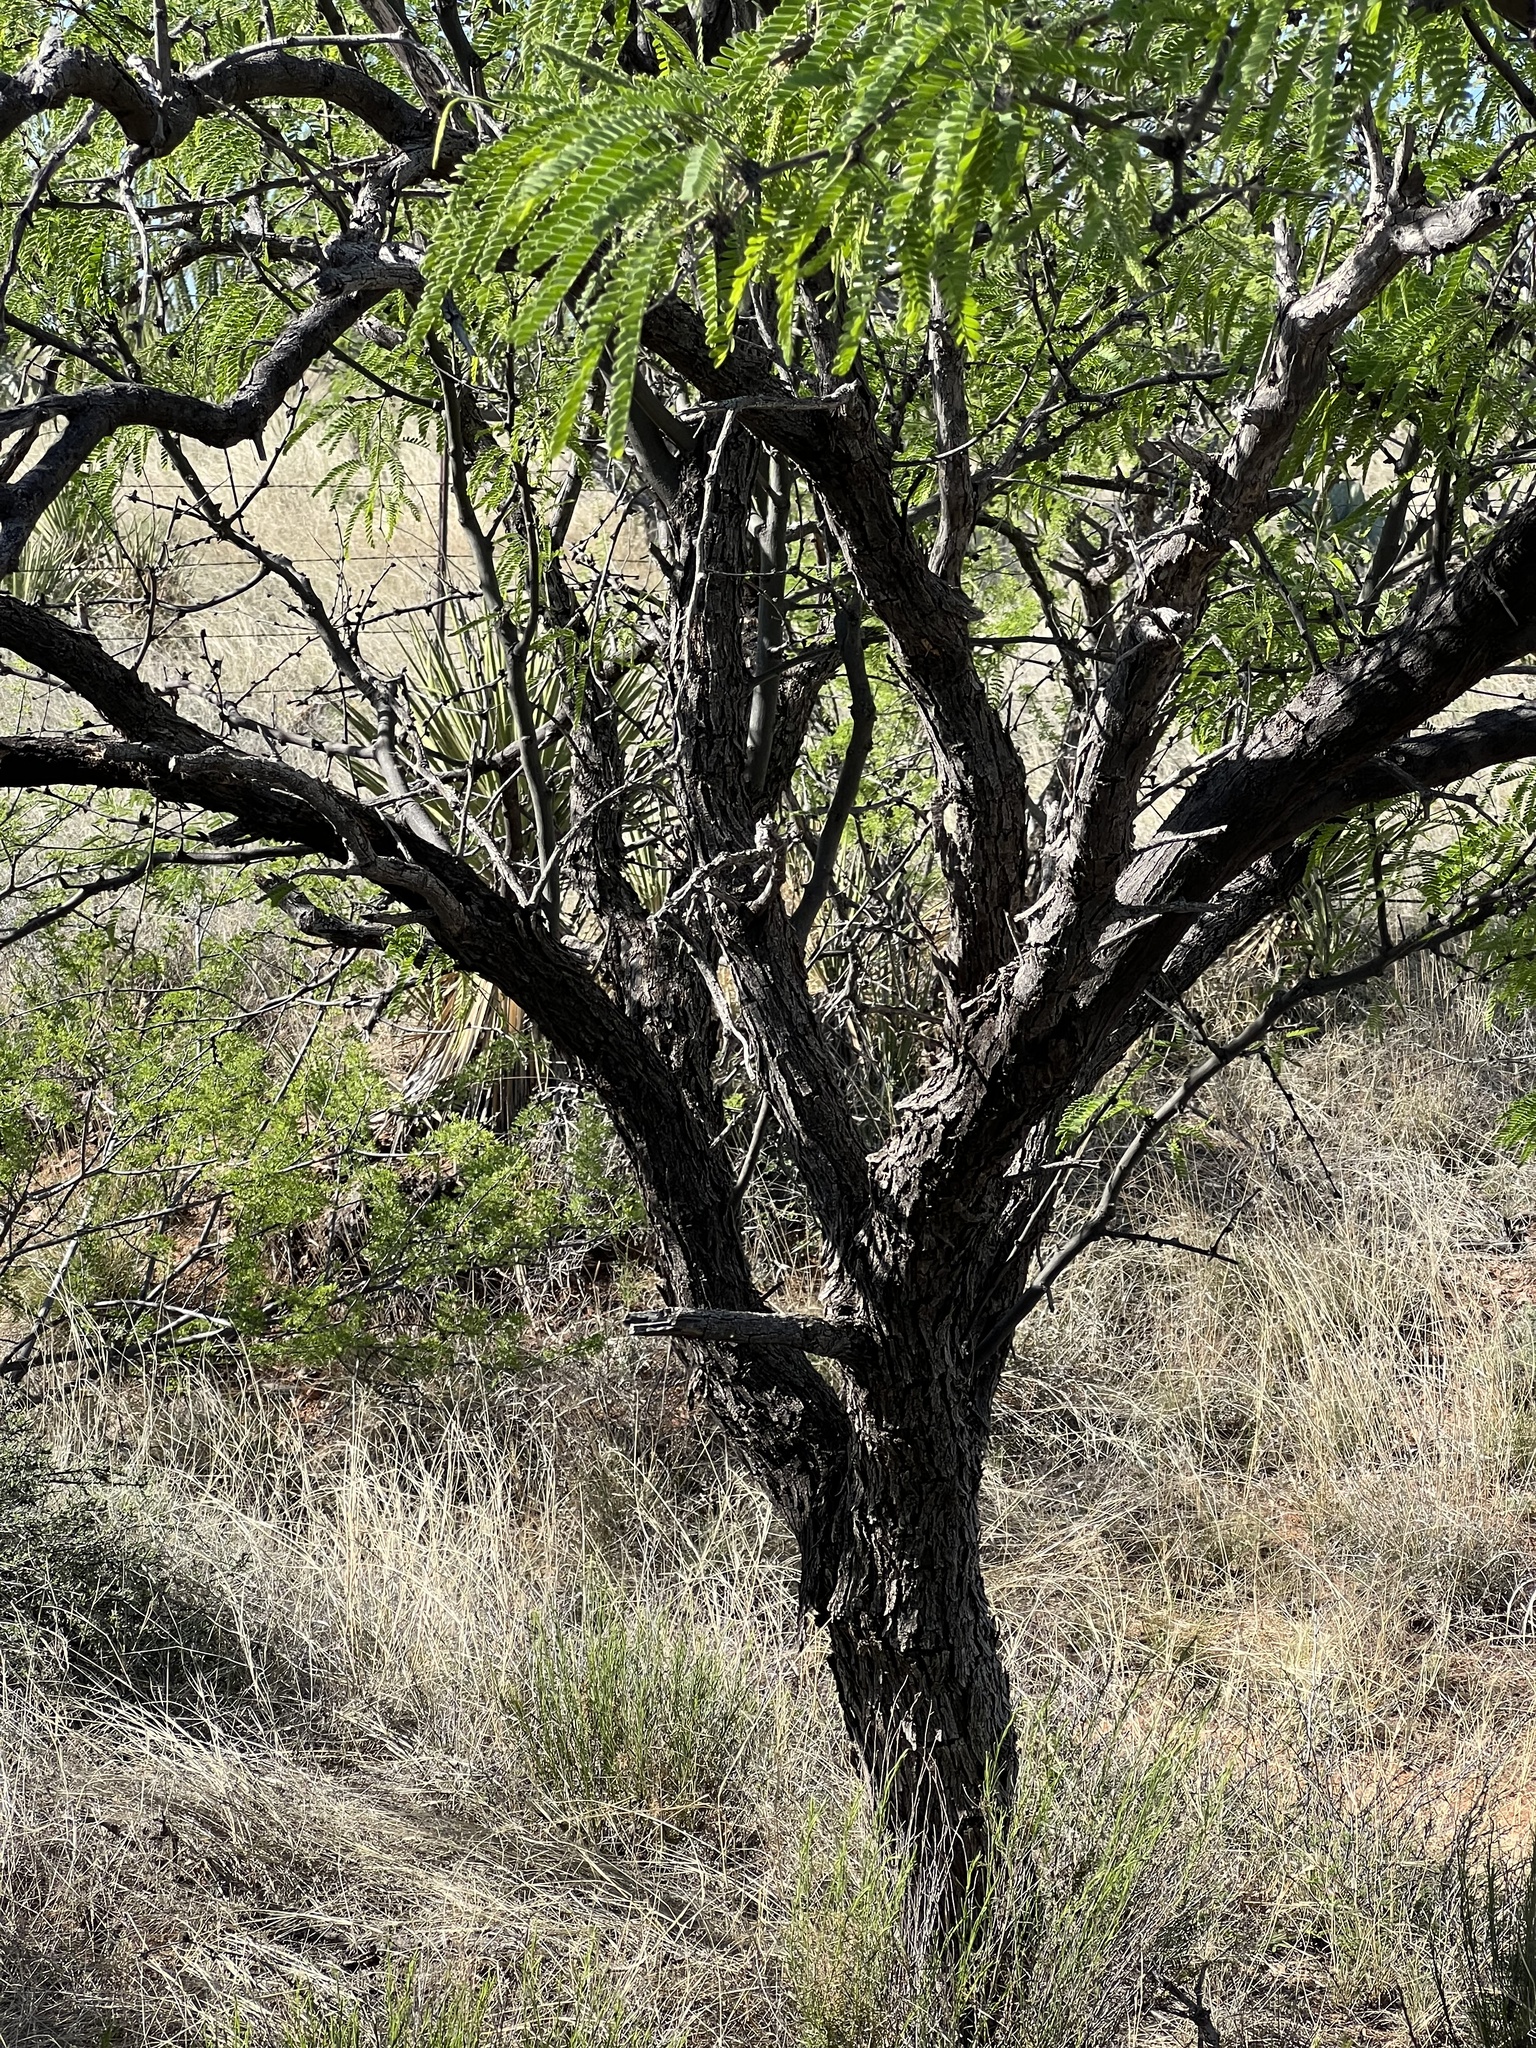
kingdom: Plantae
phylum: Tracheophyta
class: Magnoliopsida
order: Fabales
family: Fabaceae
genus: Prosopis
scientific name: Prosopis velutina
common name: Velvet mesquite
